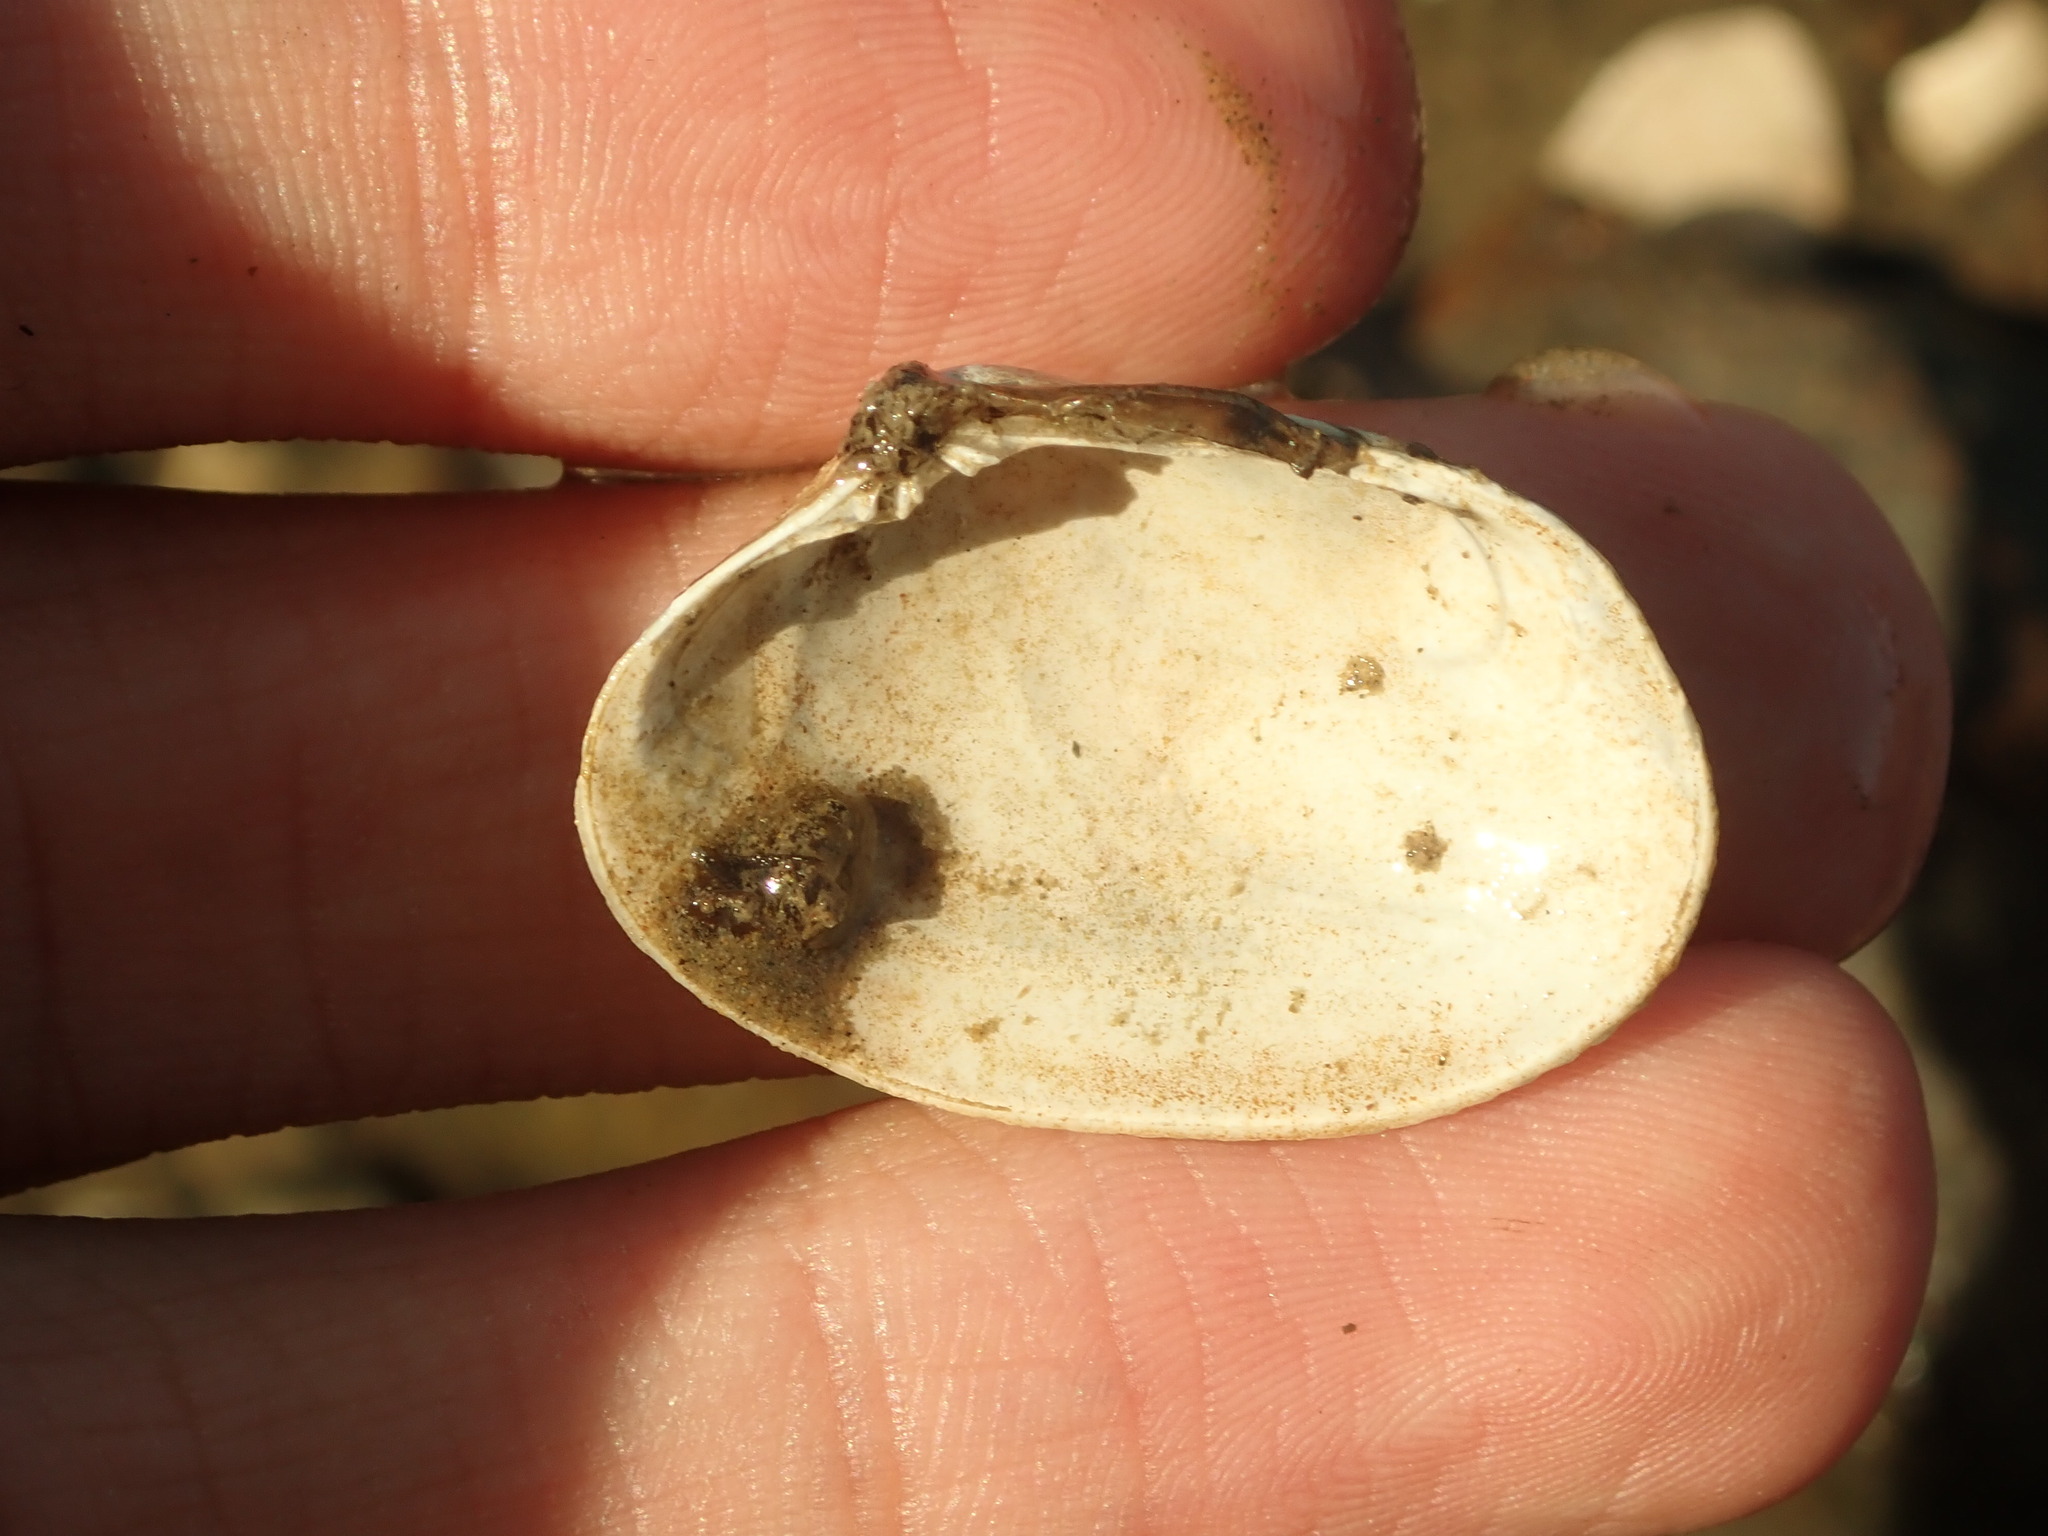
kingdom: Animalia
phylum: Mollusca
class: Bivalvia
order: Venerida
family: Veneridae
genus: Ruditapes
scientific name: Ruditapes philippinarum
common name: Manila clam
